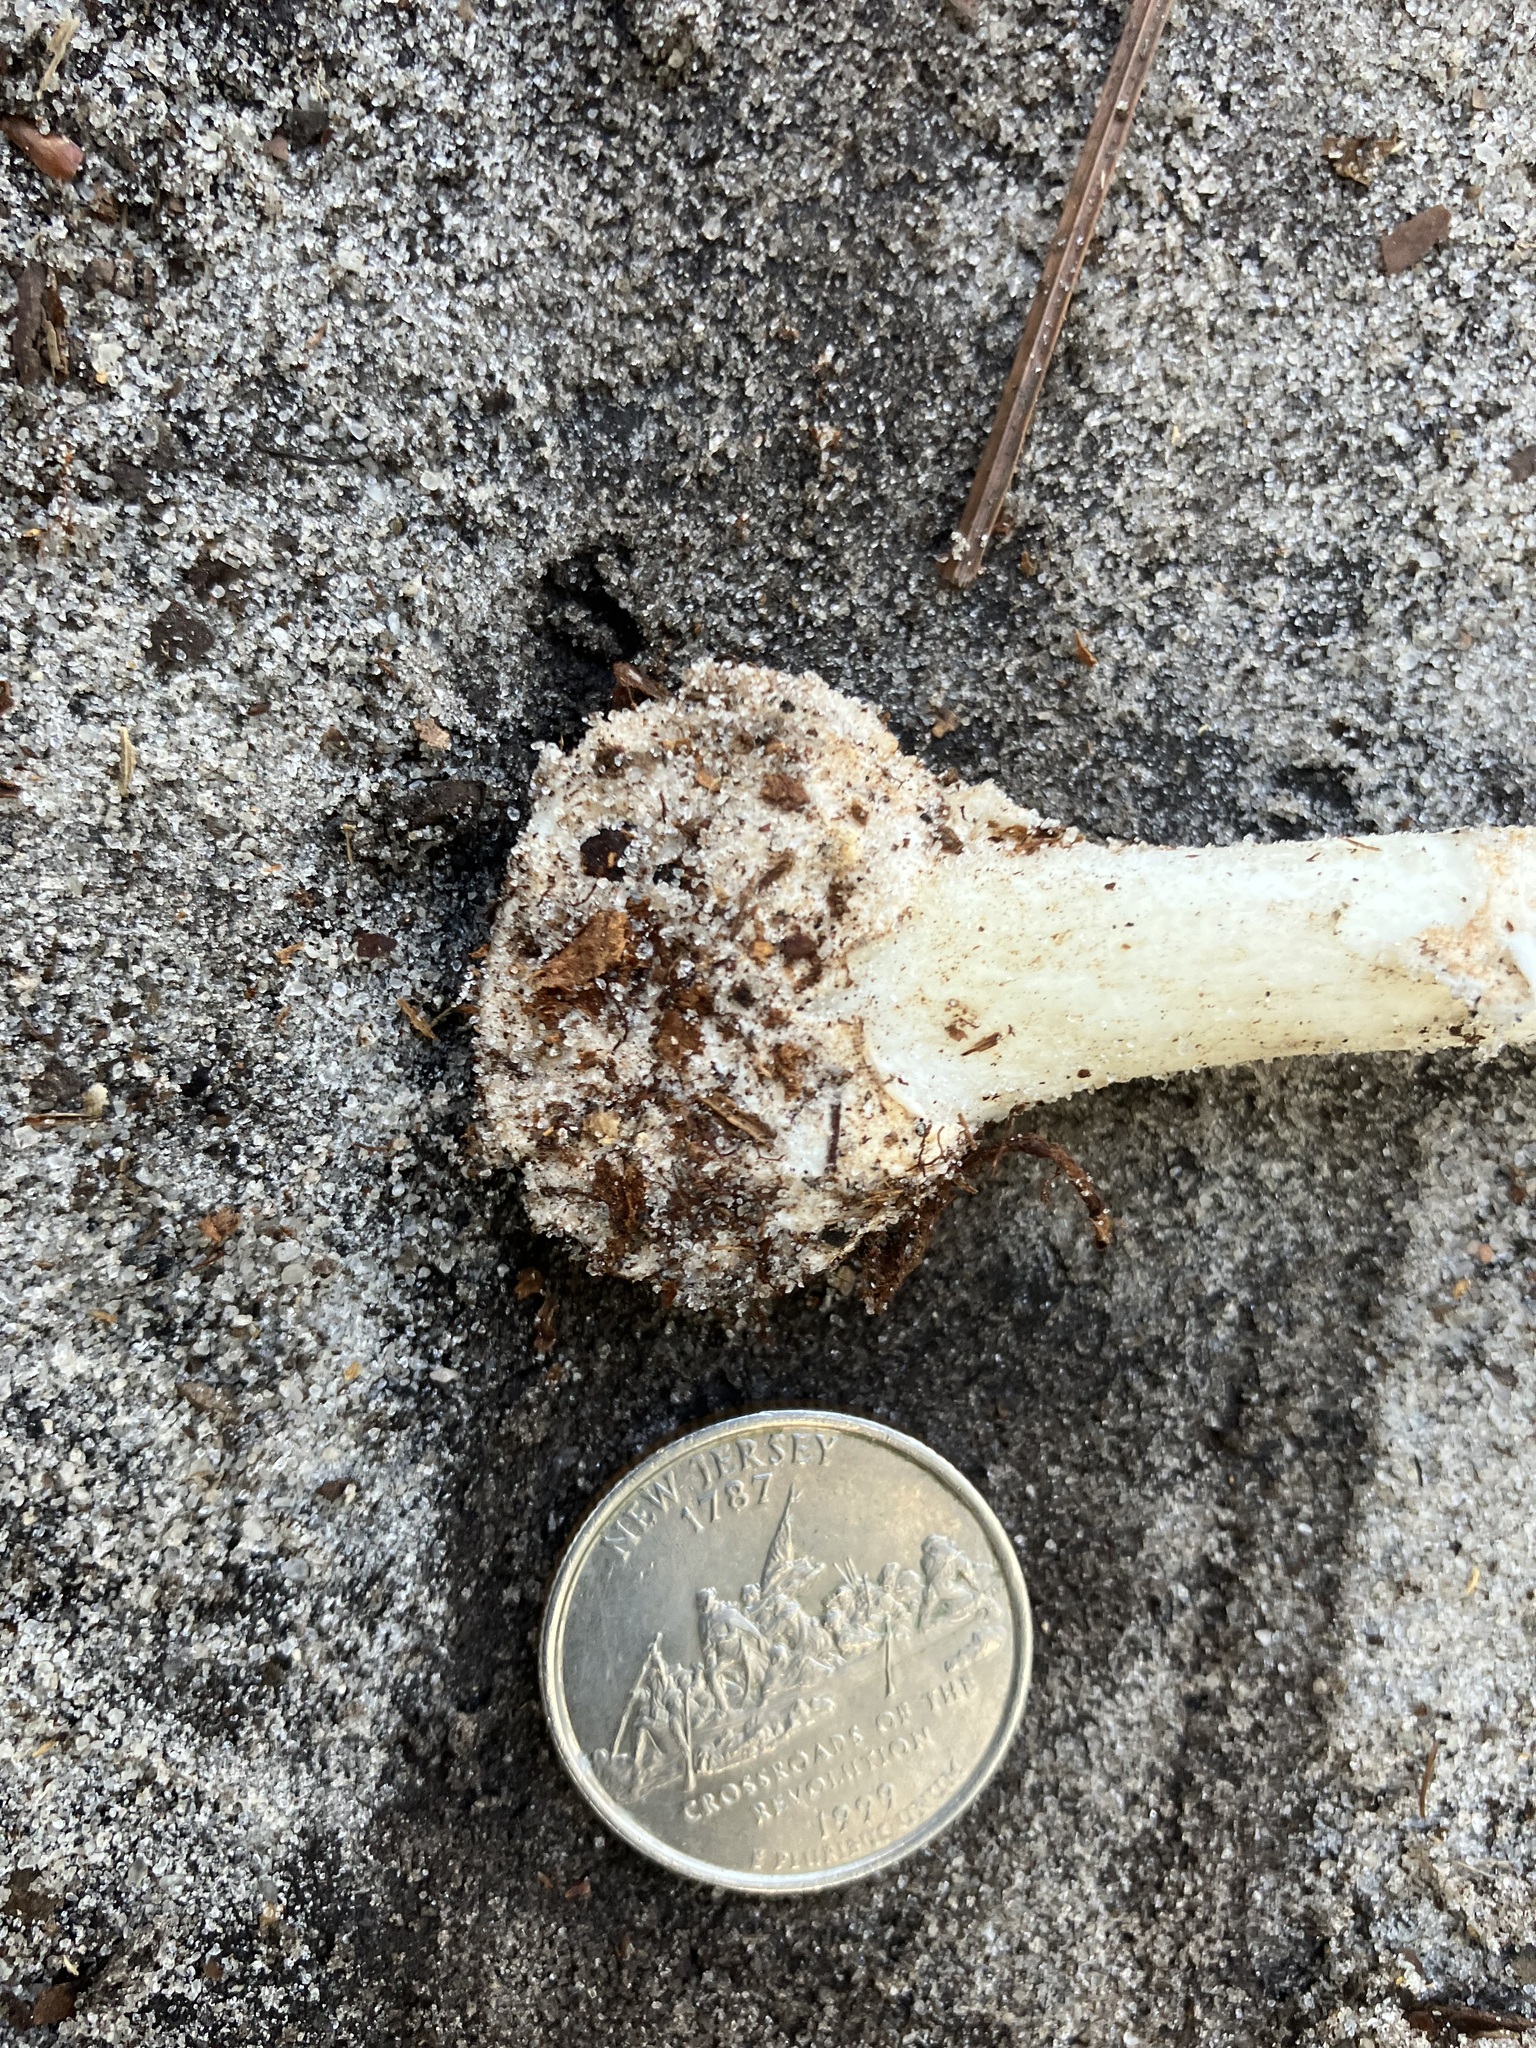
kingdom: Fungi
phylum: Basidiomycota
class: Agaricomycetes
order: Agaricales
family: Amanitaceae
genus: Amanita
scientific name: Amanita lavendula
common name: Coker's lavender staining amanita
